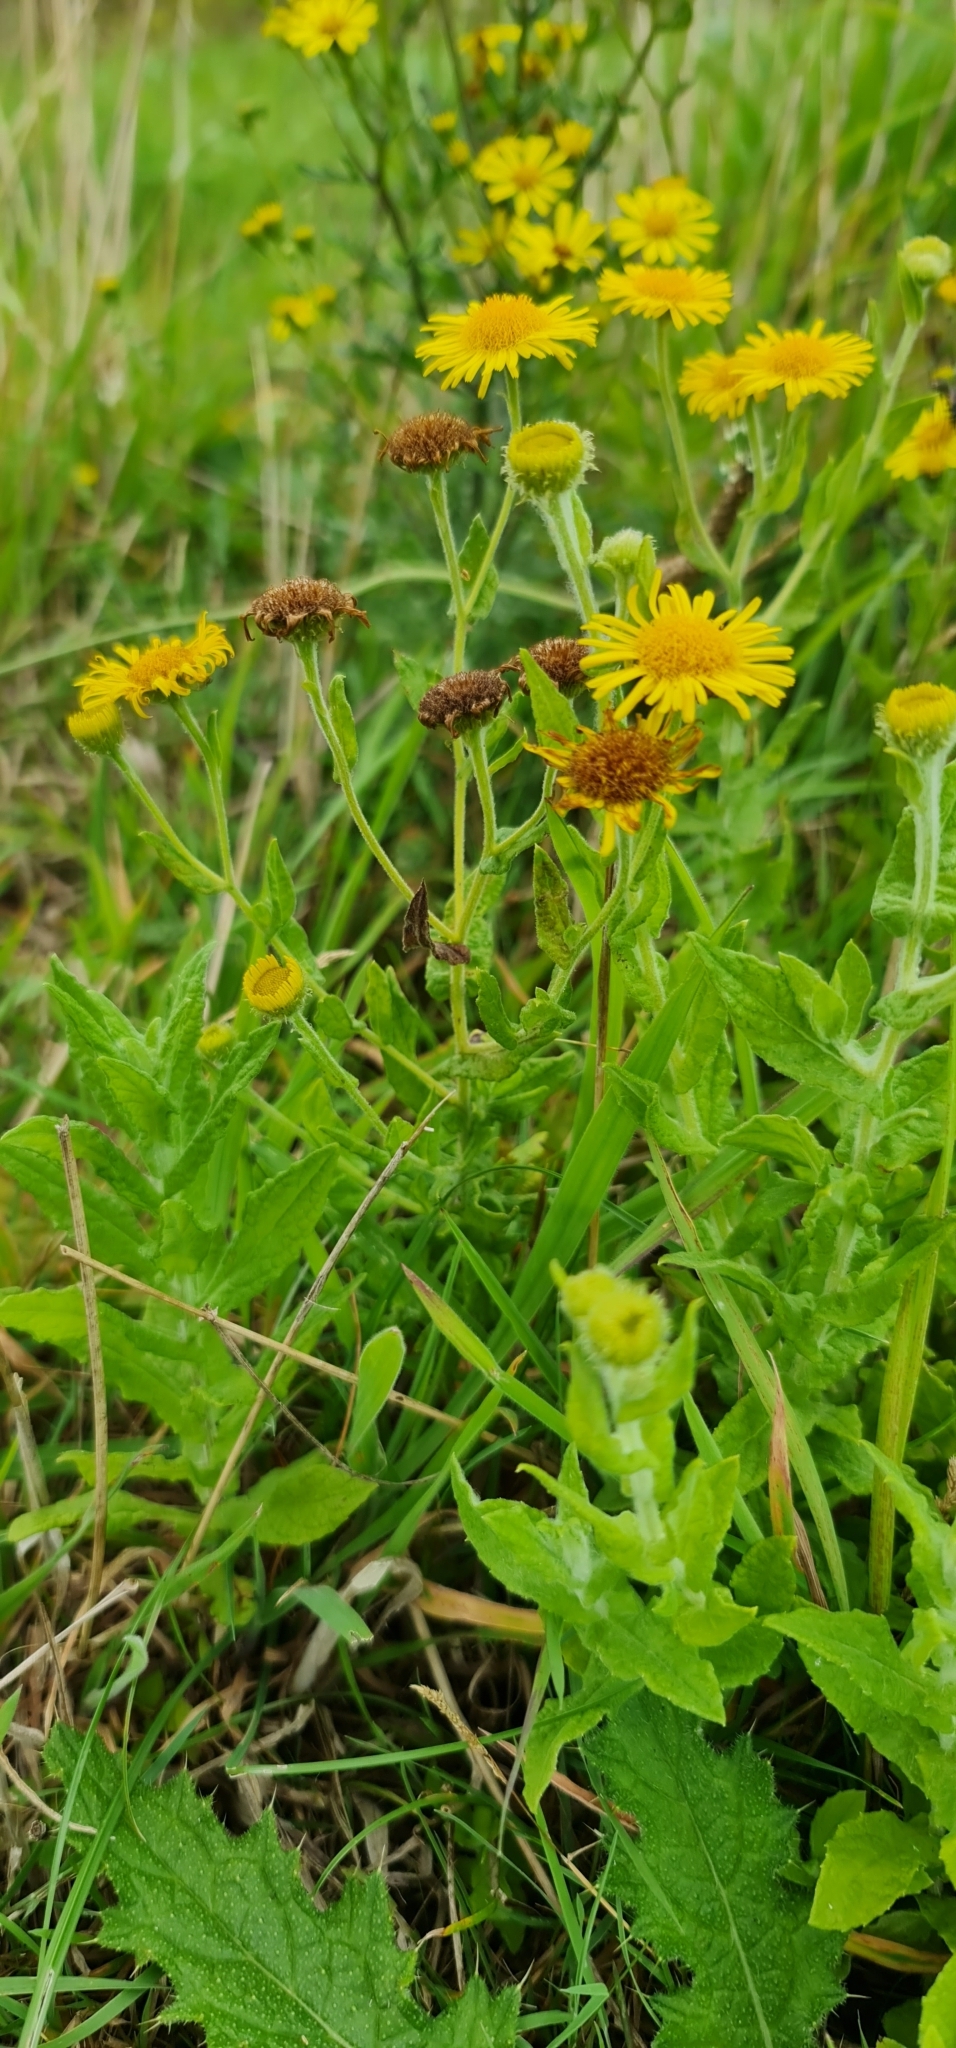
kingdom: Plantae
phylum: Tracheophyta
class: Magnoliopsida
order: Asterales
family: Asteraceae
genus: Pulicaria
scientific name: Pulicaria dysenterica
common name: Common fleabane
